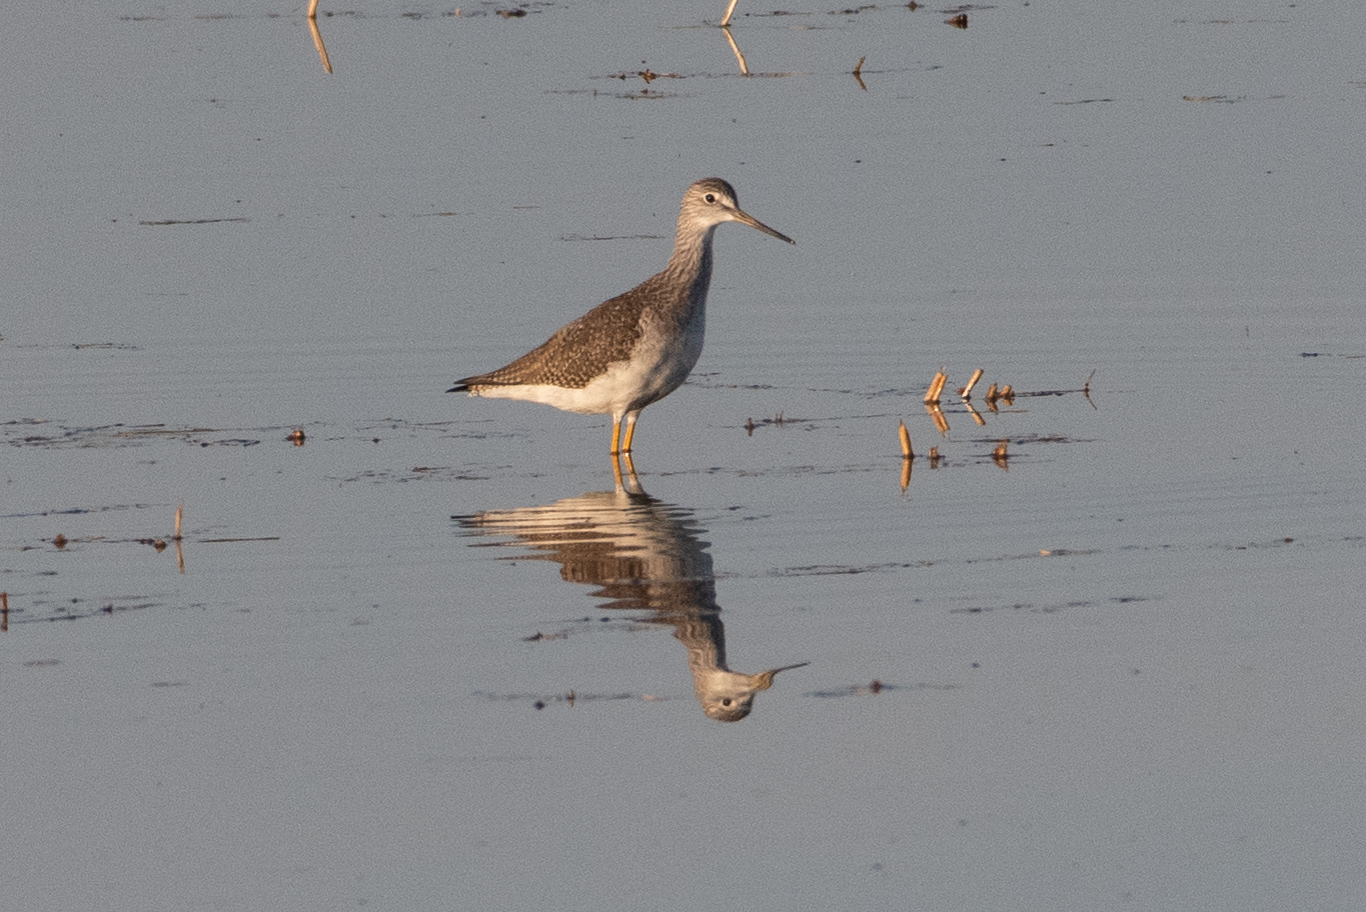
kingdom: Animalia
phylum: Chordata
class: Aves
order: Charadriiformes
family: Scolopacidae
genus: Tringa
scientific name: Tringa melanoleuca
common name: Greater yellowlegs
